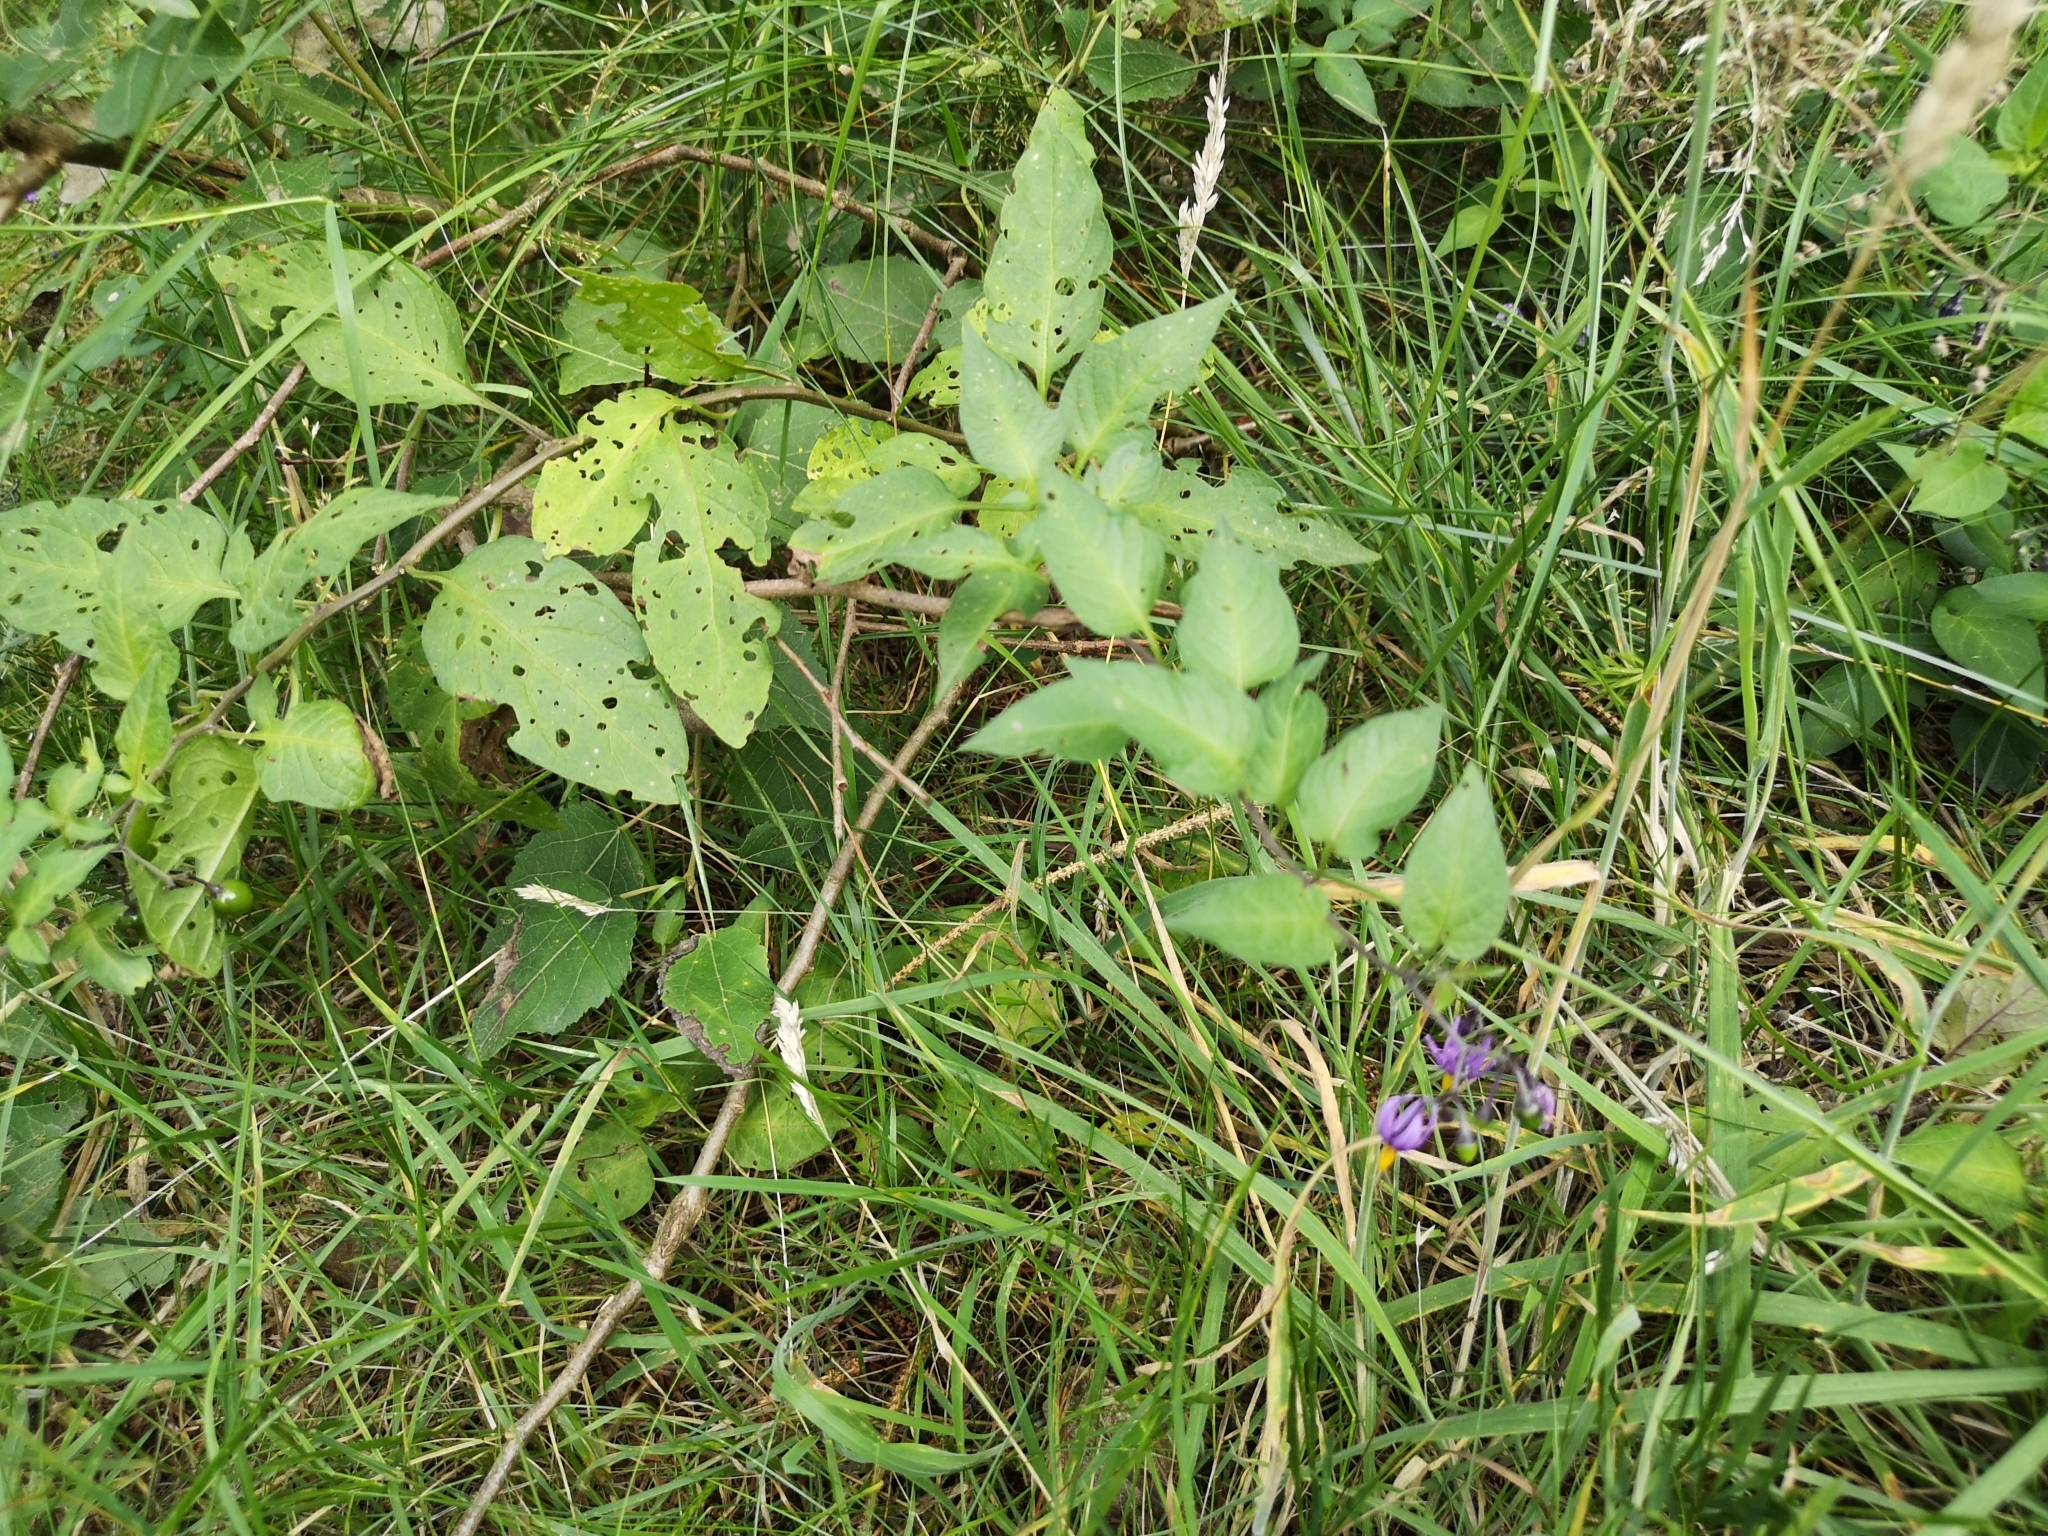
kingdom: Plantae
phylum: Tracheophyta
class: Magnoliopsida
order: Solanales
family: Solanaceae
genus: Solanum
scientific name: Solanum dulcamara
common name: Climbing nightshade
